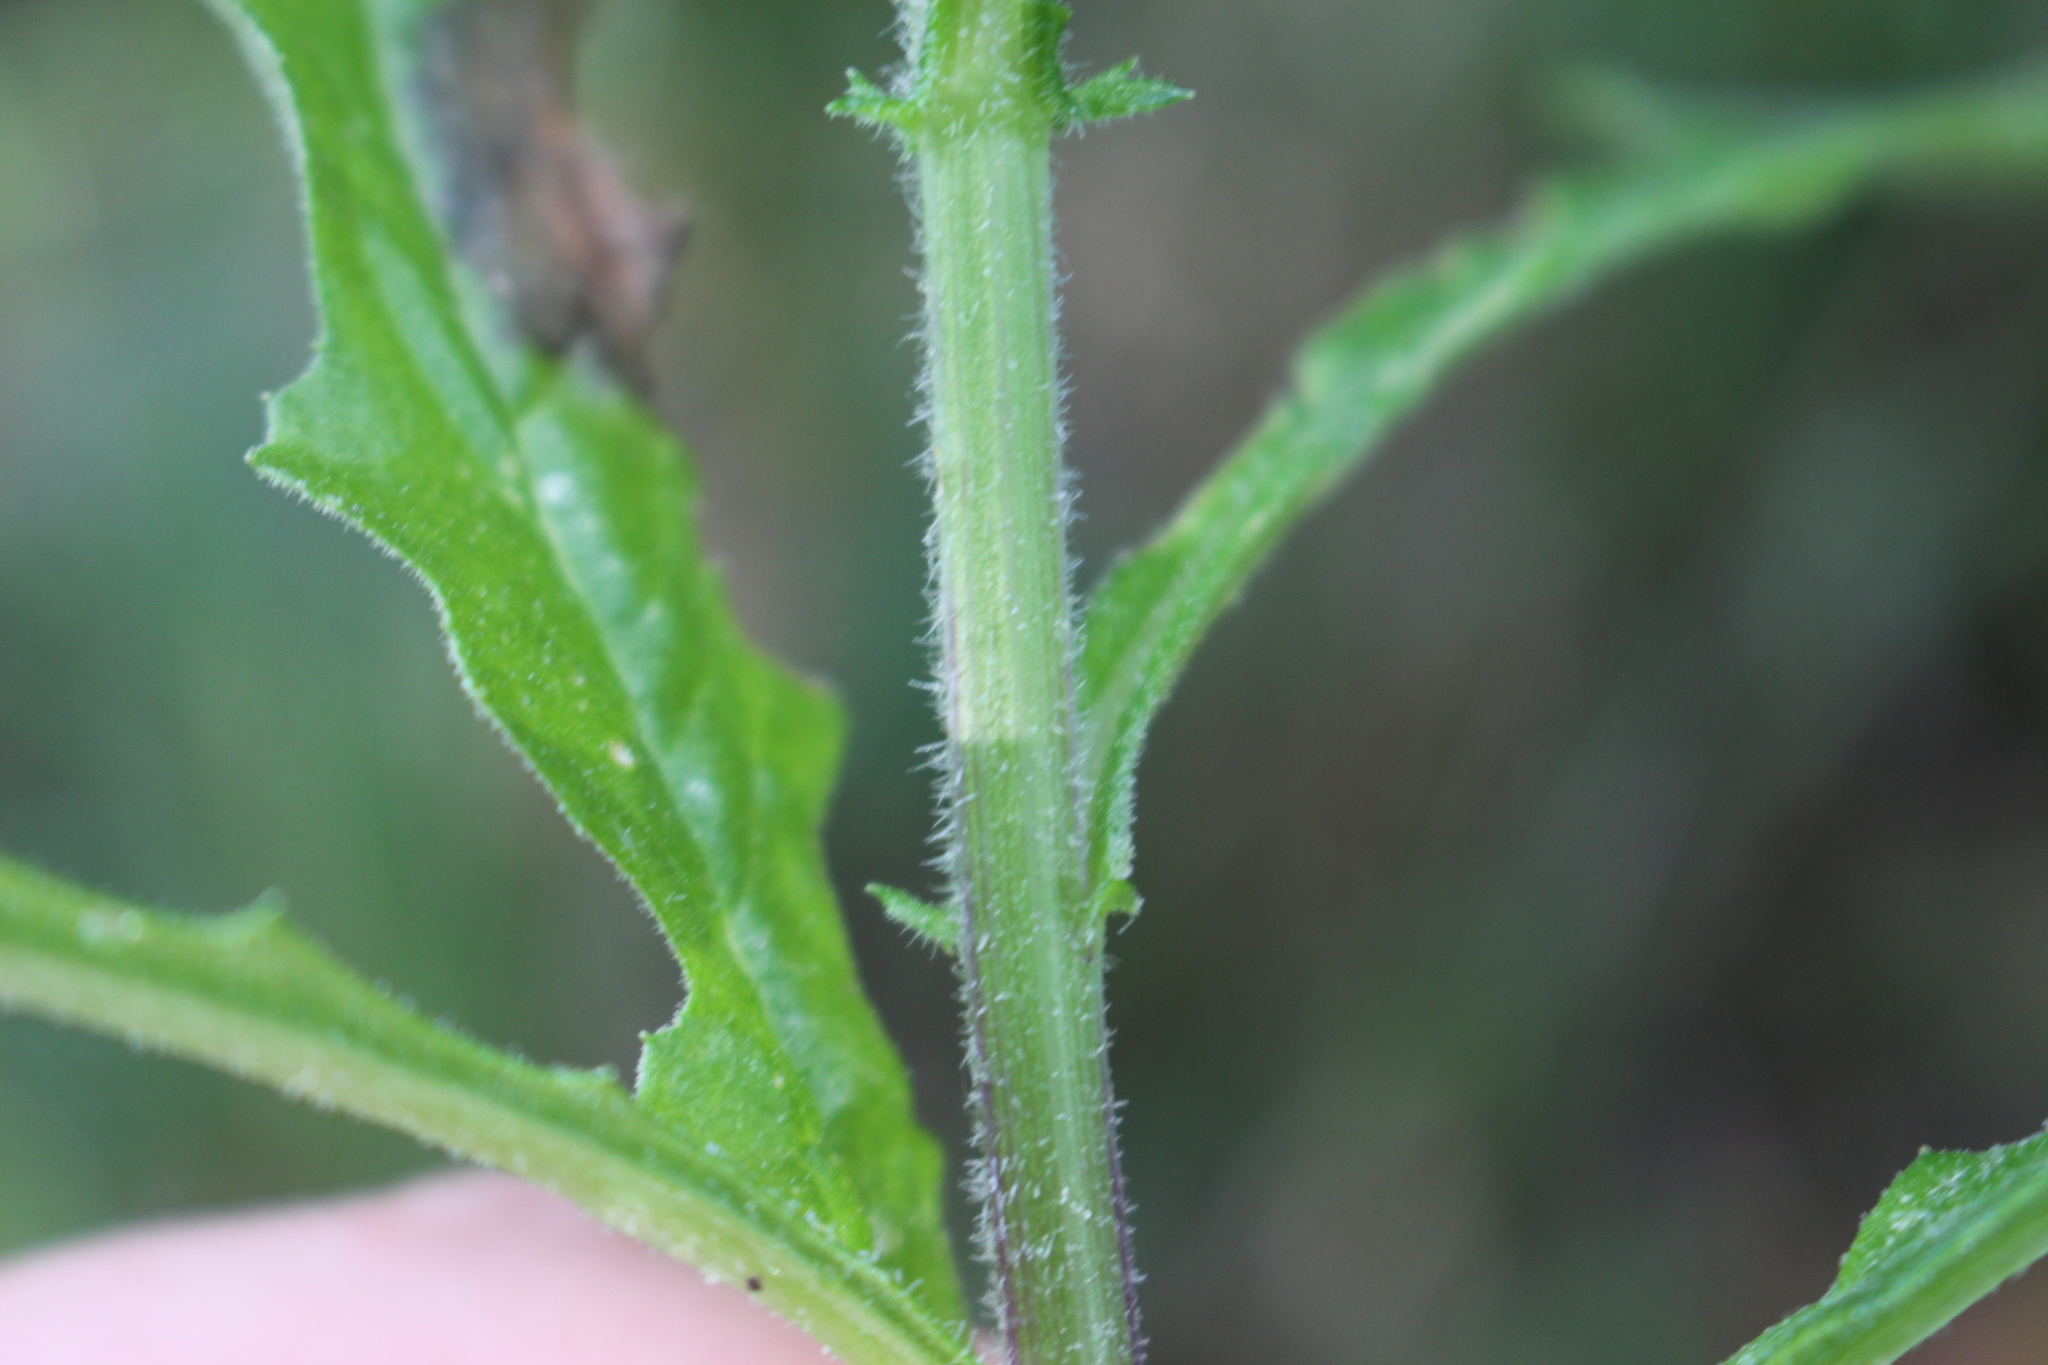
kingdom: Plantae
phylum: Tracheophyta
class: Magnoliopsida
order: Asterales
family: Asteraceae
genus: Senecio
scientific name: Senecio hispidulus
